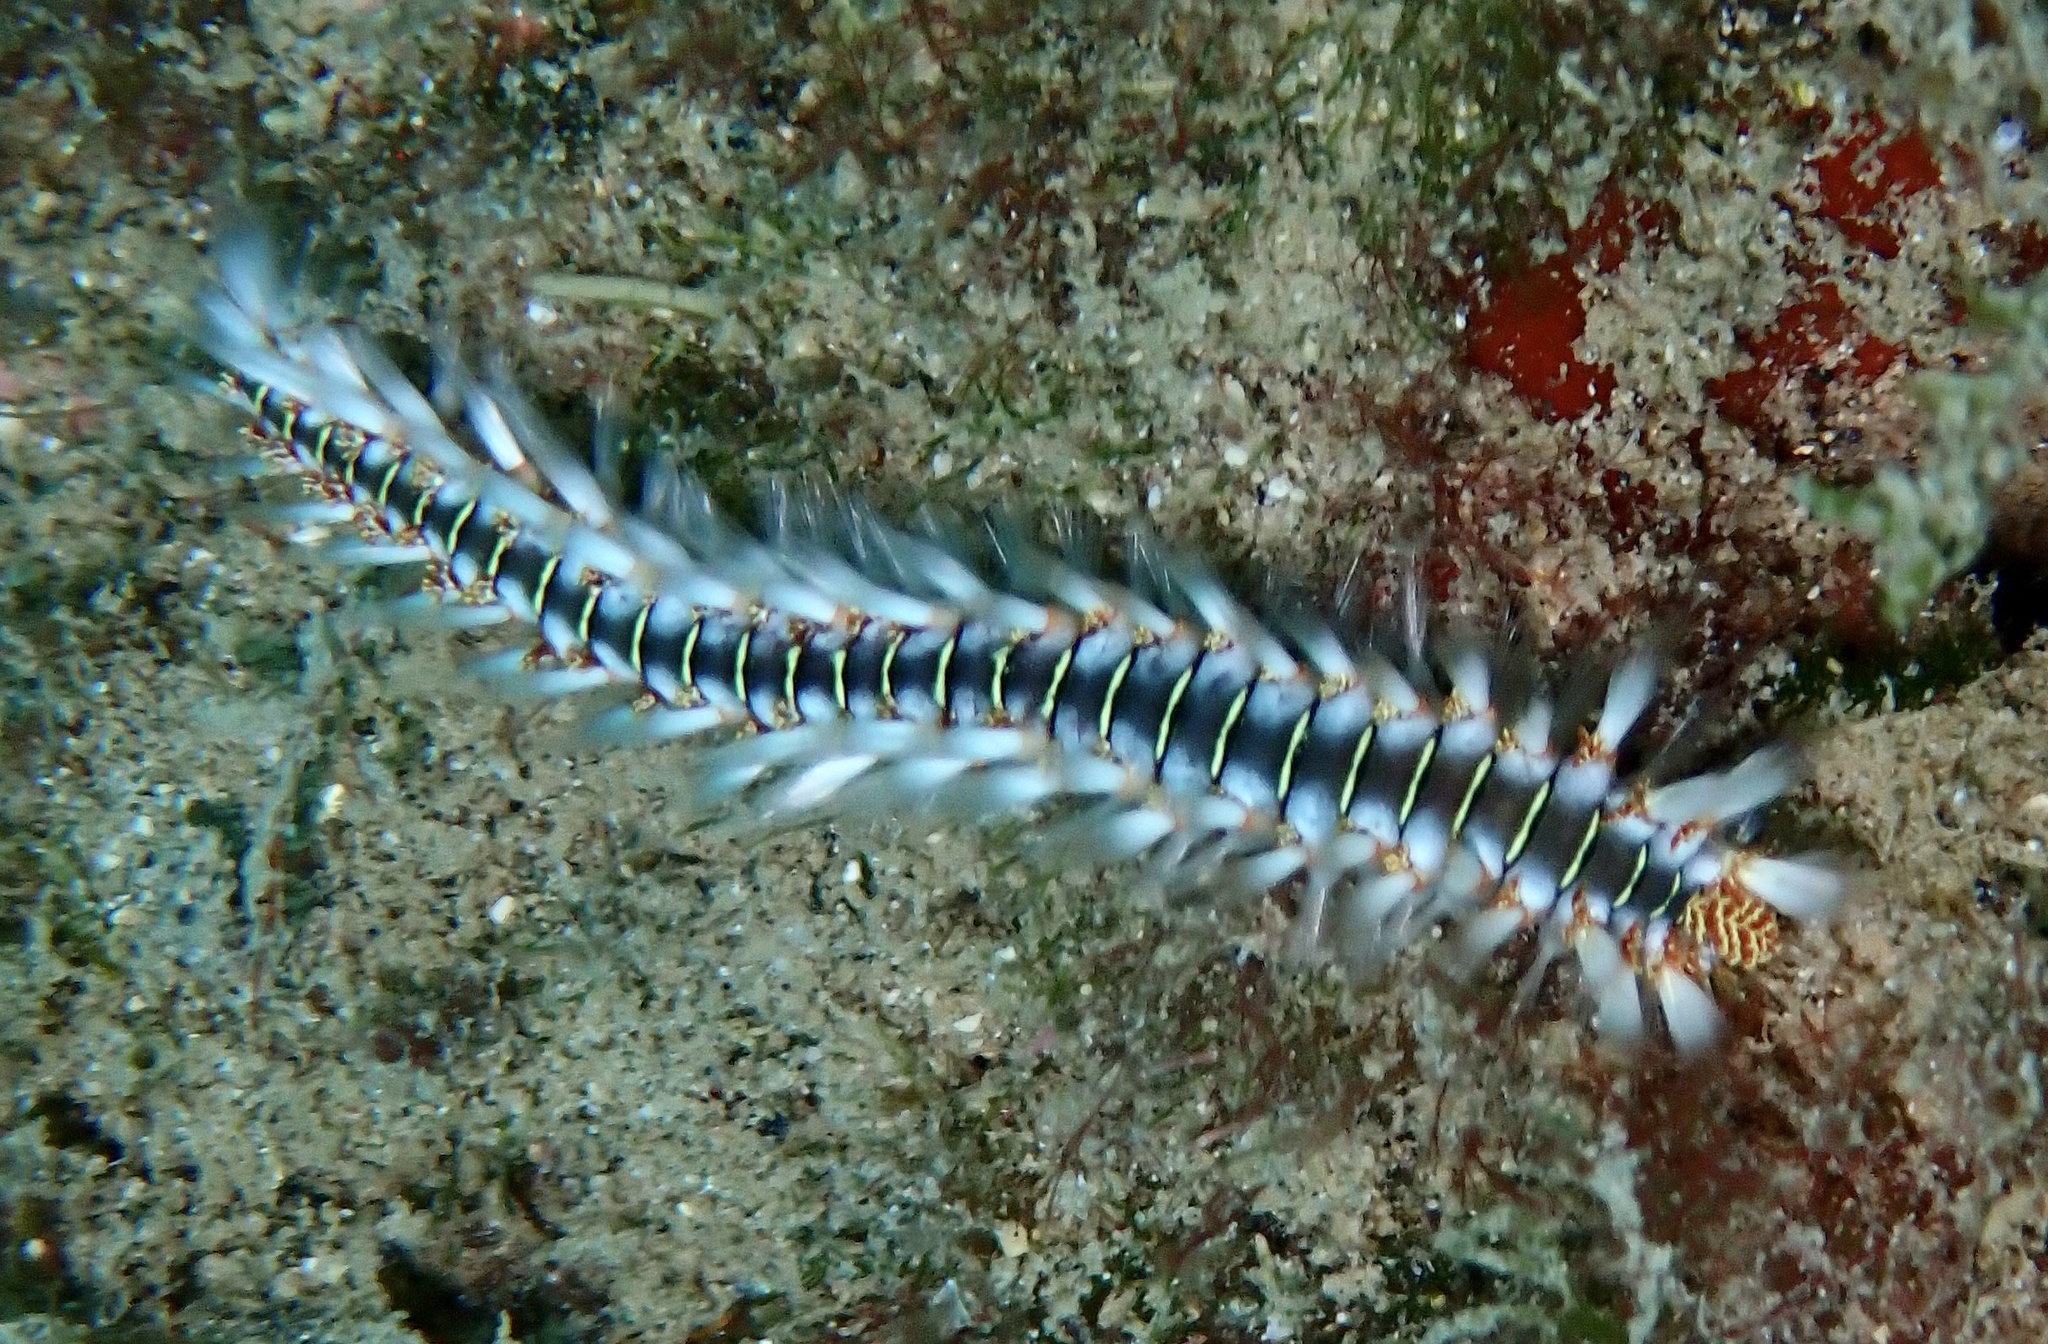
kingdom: Animalia
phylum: Annelida
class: Polychaeta
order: Amphinomida
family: Amphinomidae
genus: Hermodice
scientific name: Hermodice carunculata
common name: Bearded fireworm
